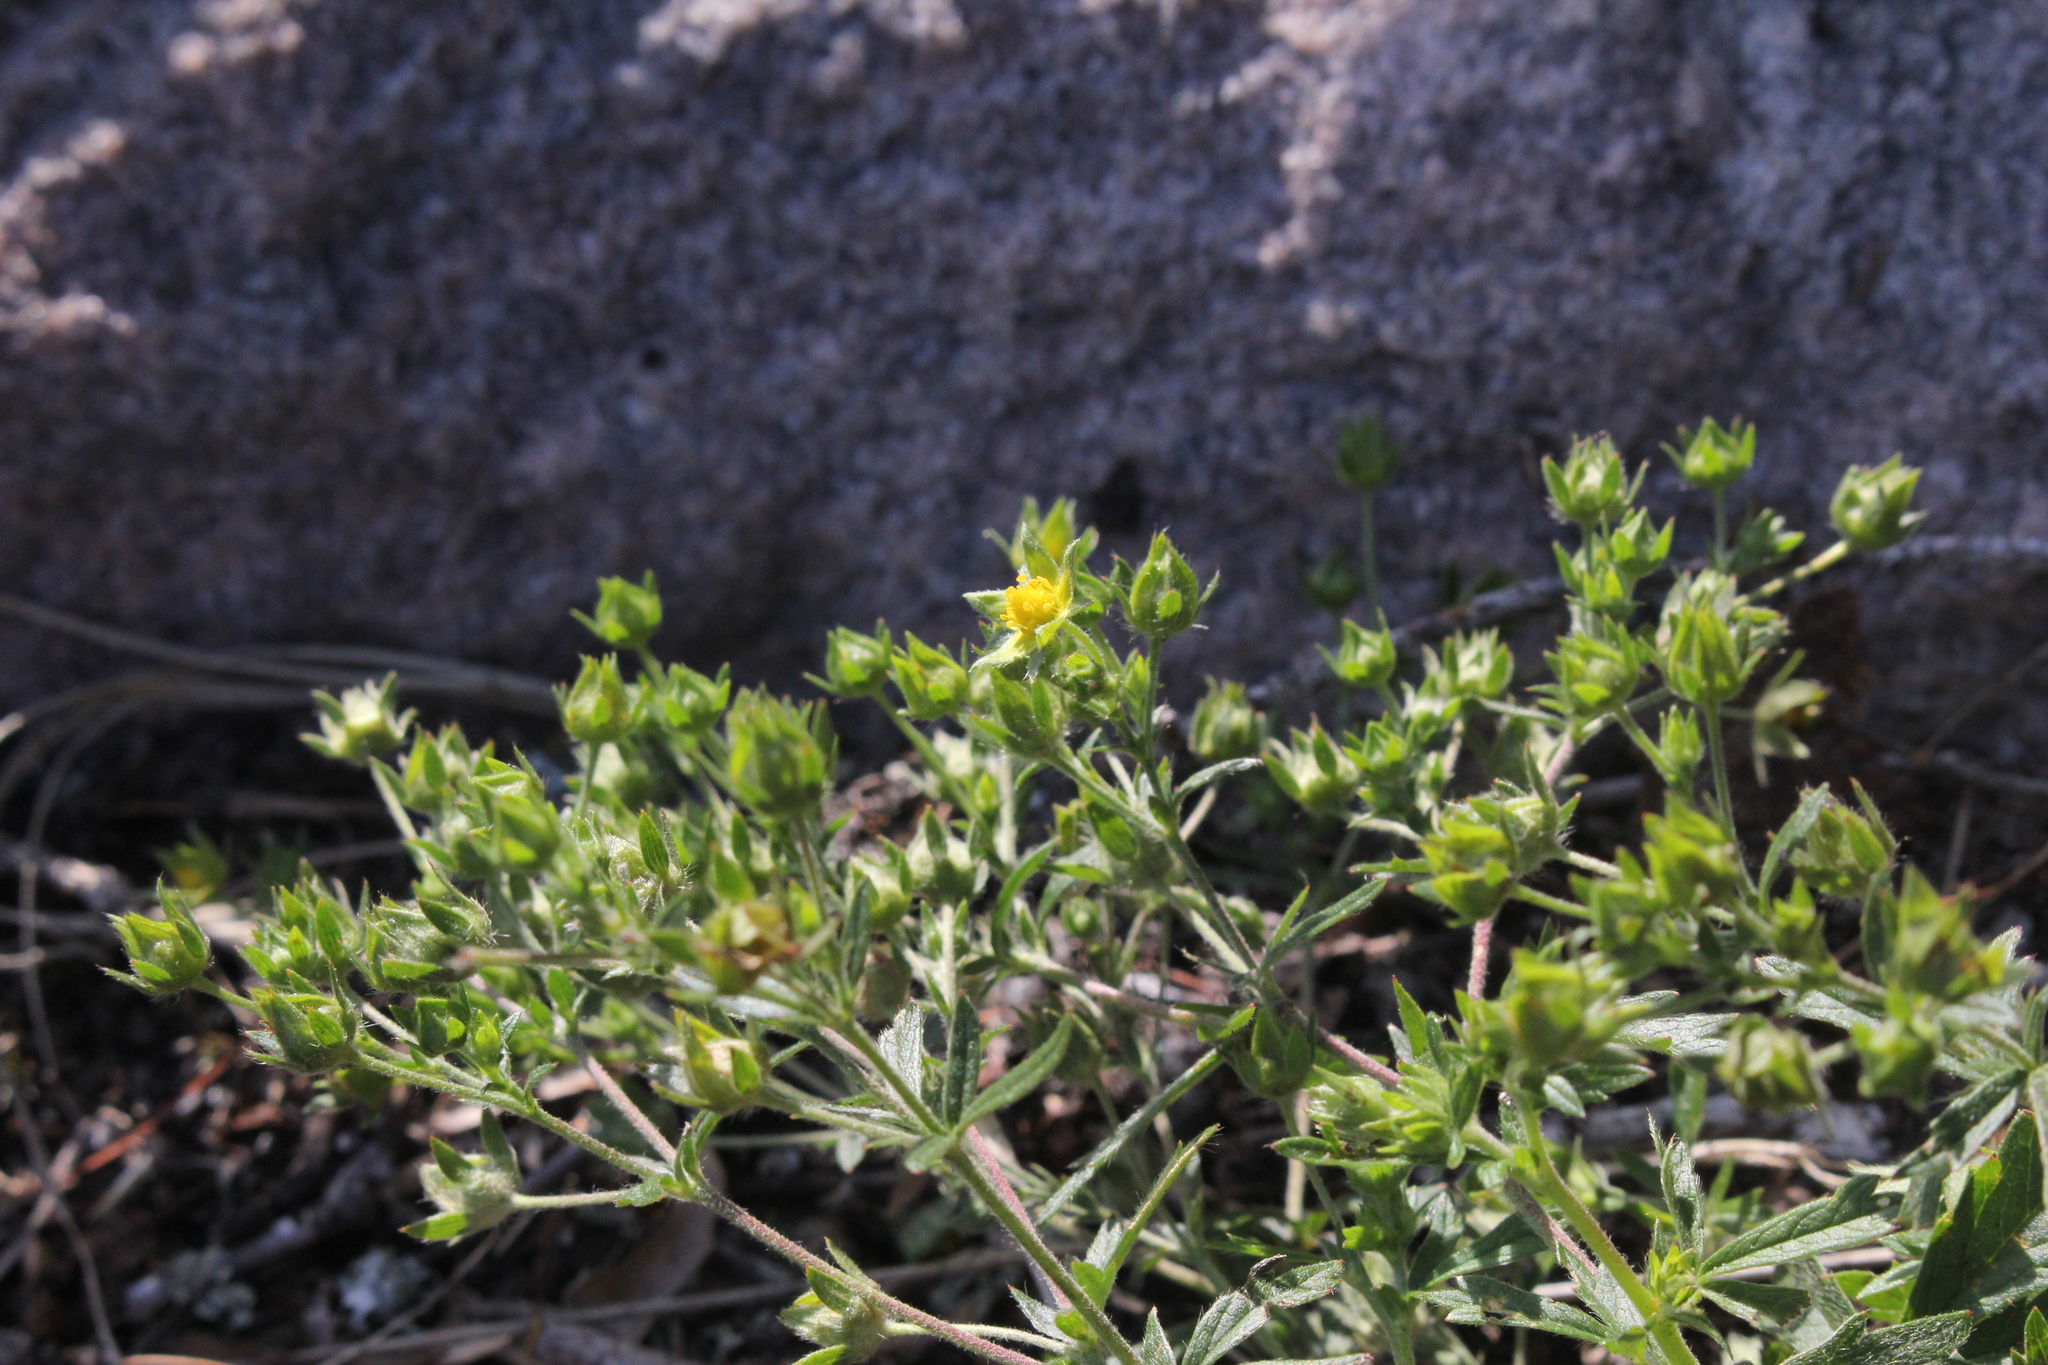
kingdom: Plantae
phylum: Tracheophyta
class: Magnoliopsida
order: Rosales
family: Rosaceae
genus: Potentilla
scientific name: Potentilla argentea
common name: Hoary cinquefoil
